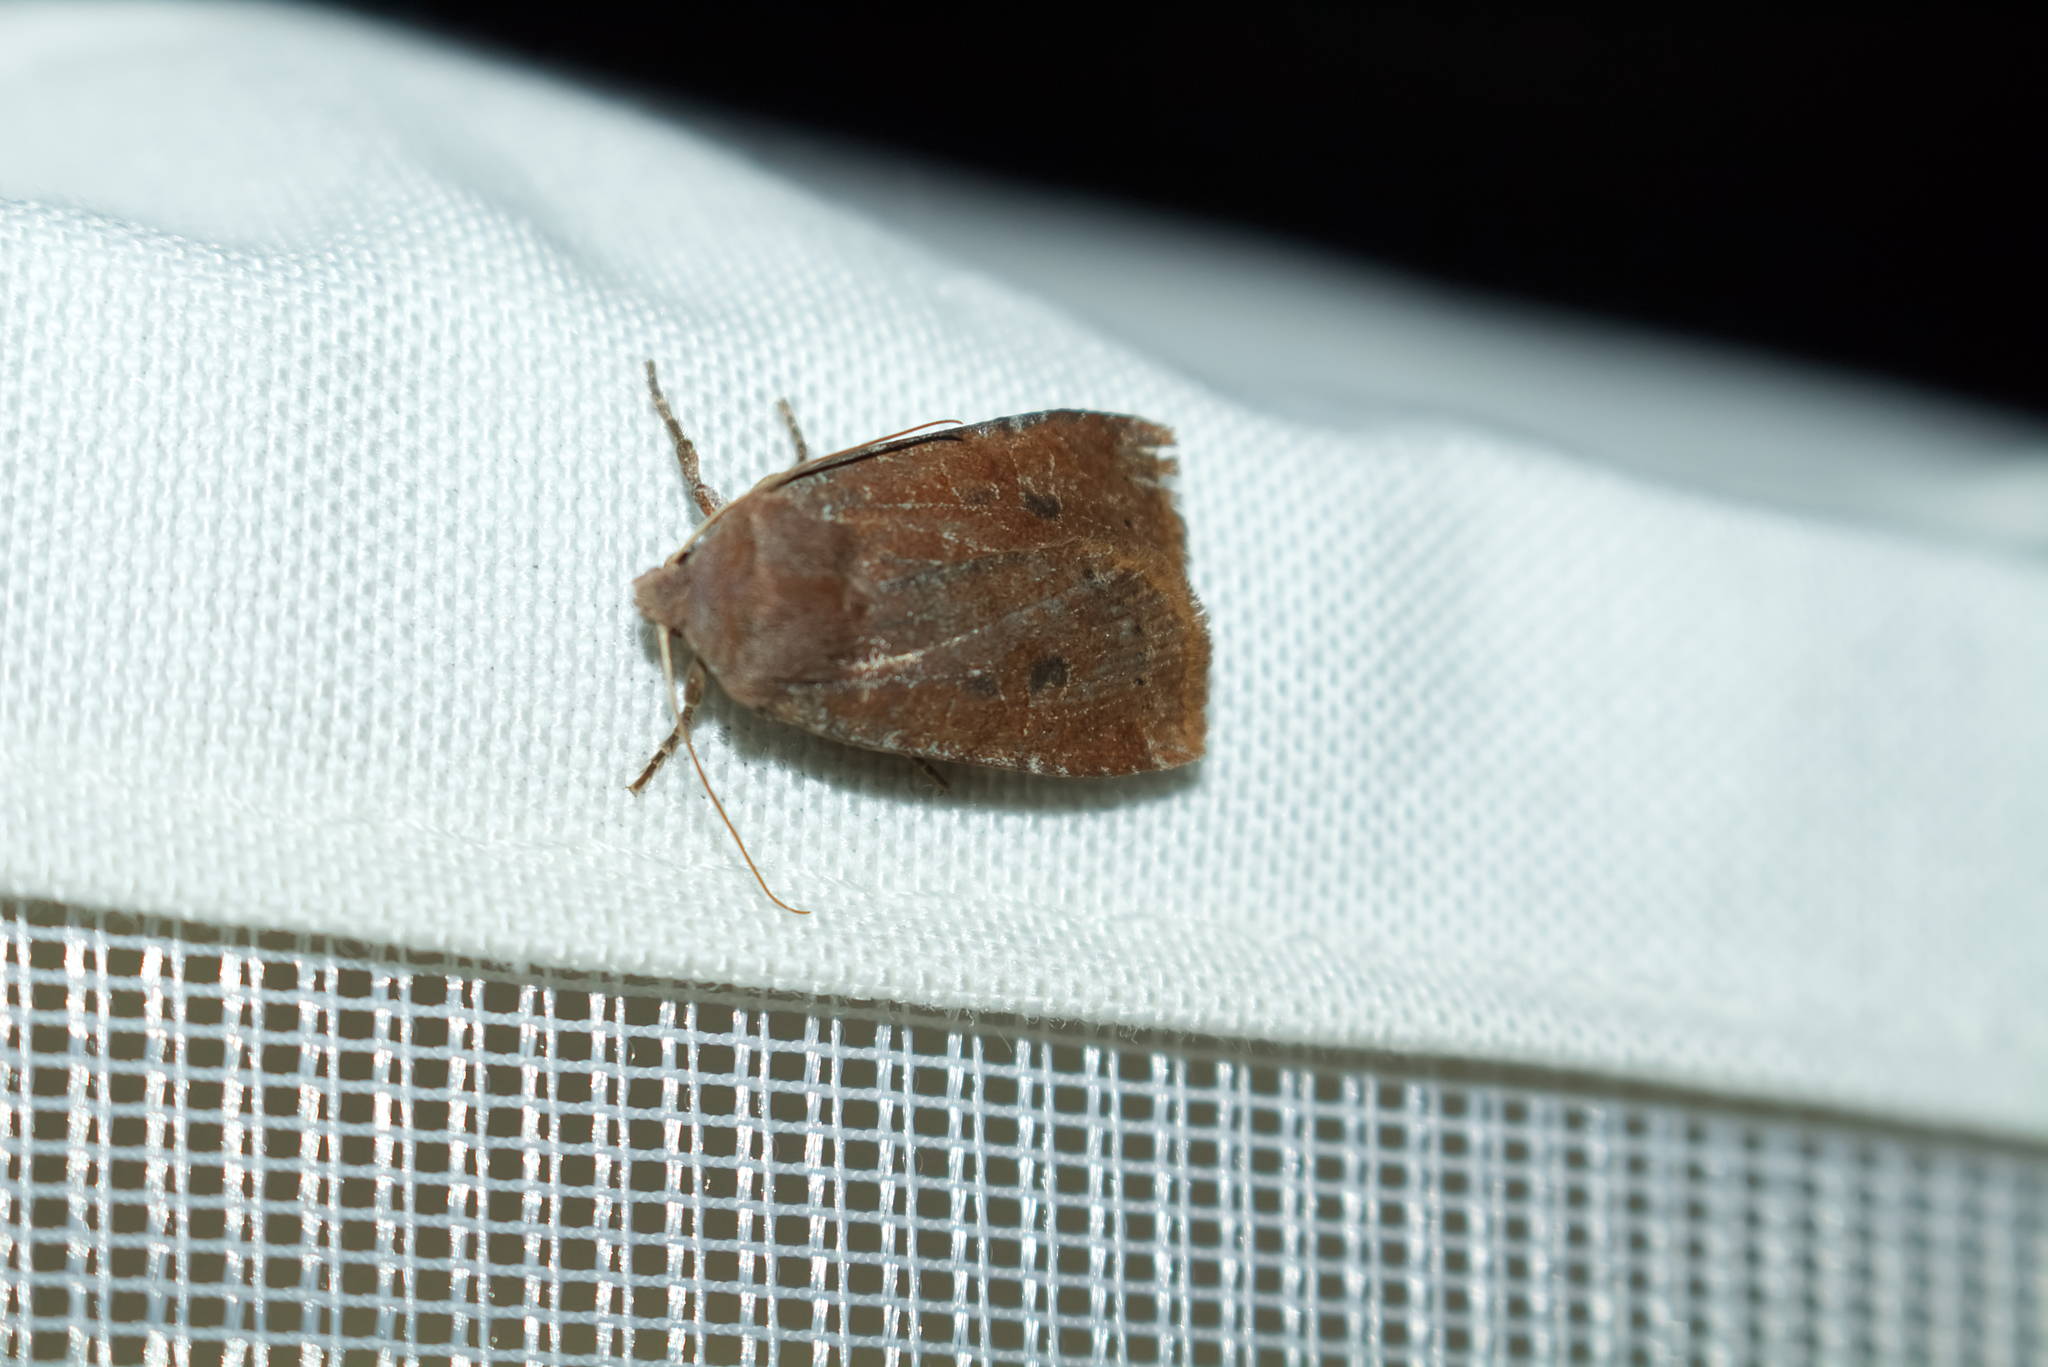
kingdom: Animalia
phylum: Arthropoda
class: Insecta
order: Lepidoptera
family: Noctuidae
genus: Conistra
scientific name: Conistra vaccinii
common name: Chestnut
